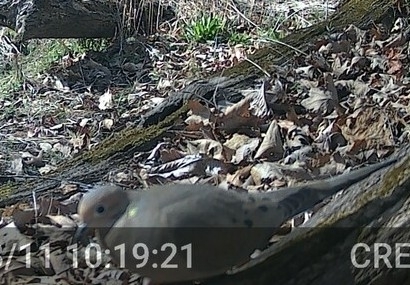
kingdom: Animalia
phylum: Chordata
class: Aves
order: Columbiformes
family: Columbidae
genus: Zenaida
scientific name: Zenaida macroura
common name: Mourning dove
